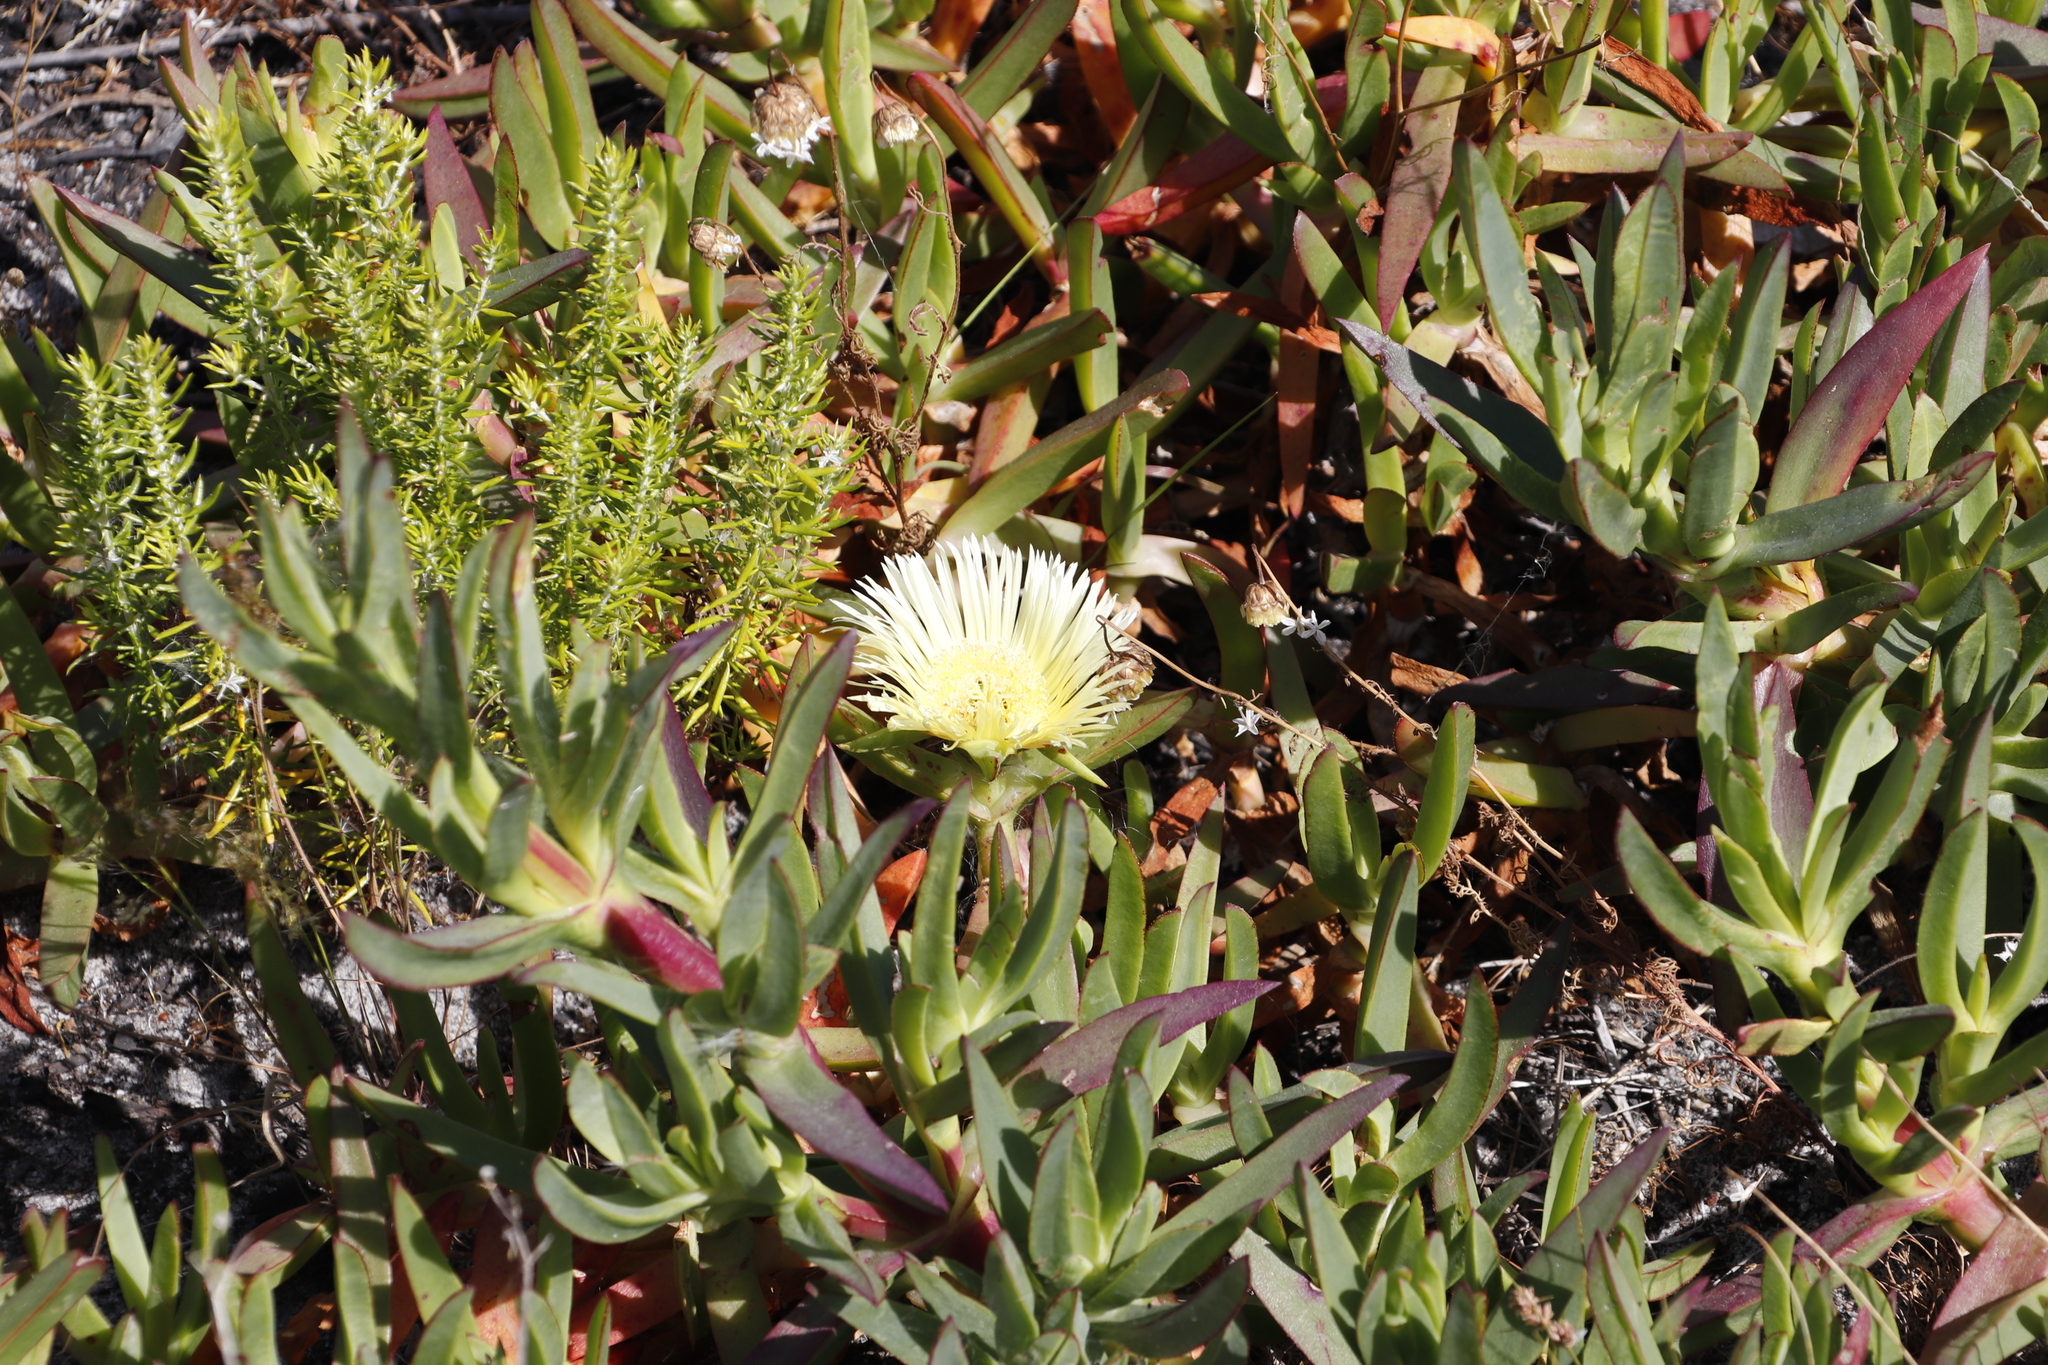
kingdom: Plantae
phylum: Tracheophyta
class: Magnoliopsida
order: Caryophyllales
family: Aizoaceae
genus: Carpobrotus
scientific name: Carpobrotus edulis
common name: Hottentot-fig
